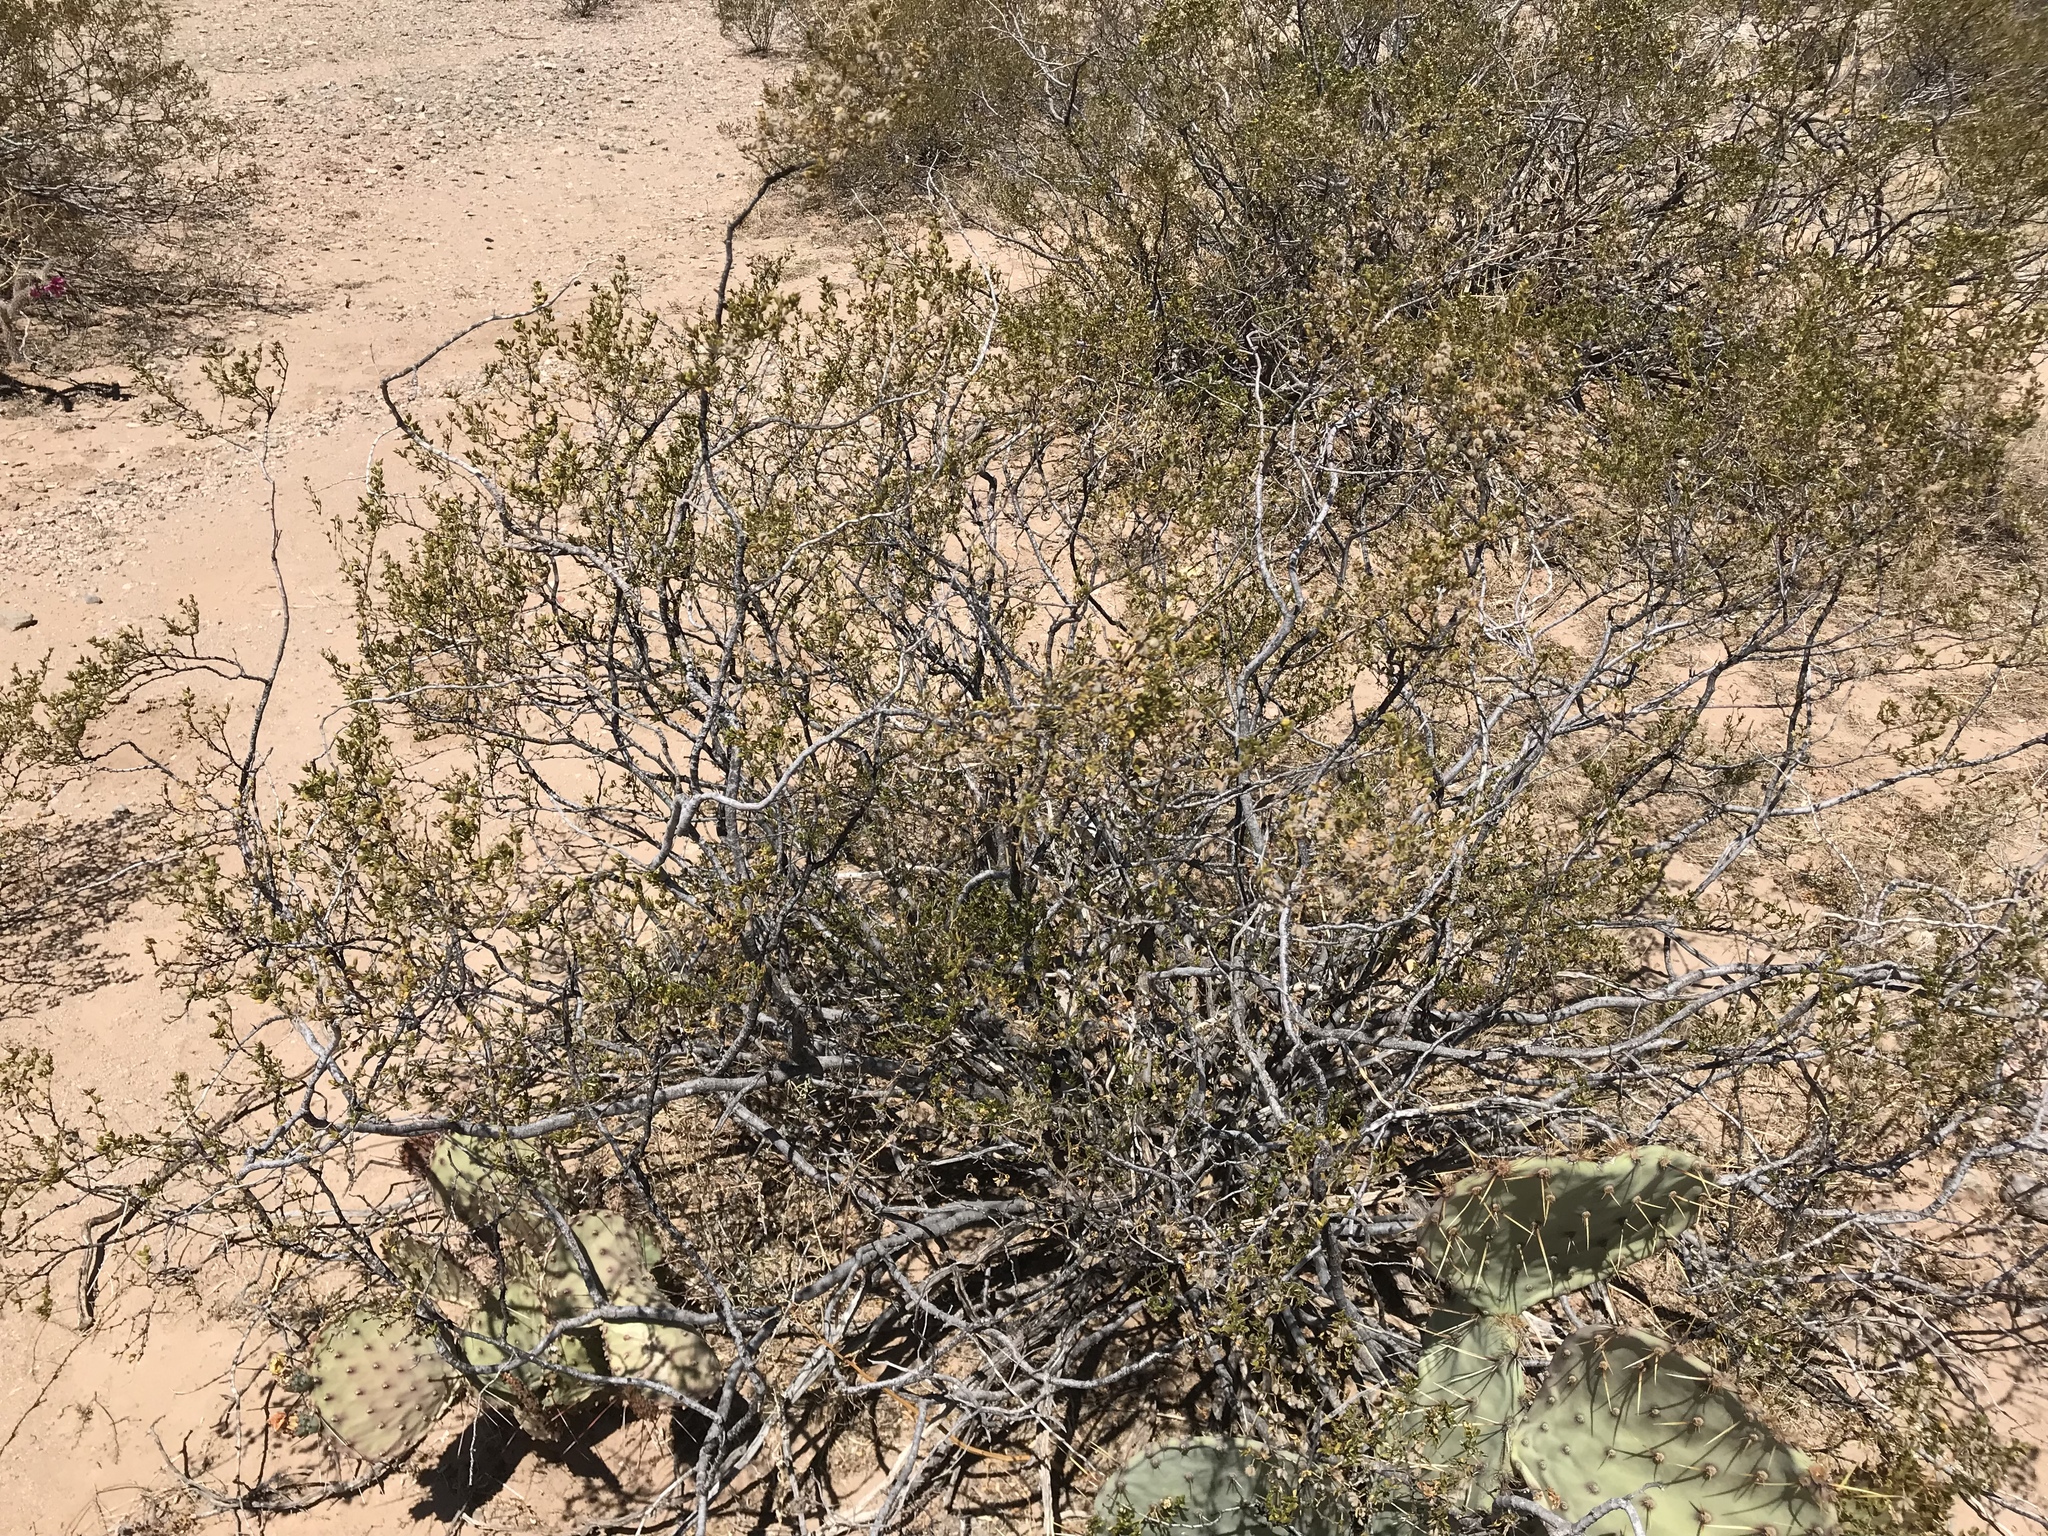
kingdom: Plantae
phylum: Tracheophyta
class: Magnoliopsida
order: Zygophyllales
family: Zygophyllaceae
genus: Larrea
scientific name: Larrea tridentata
